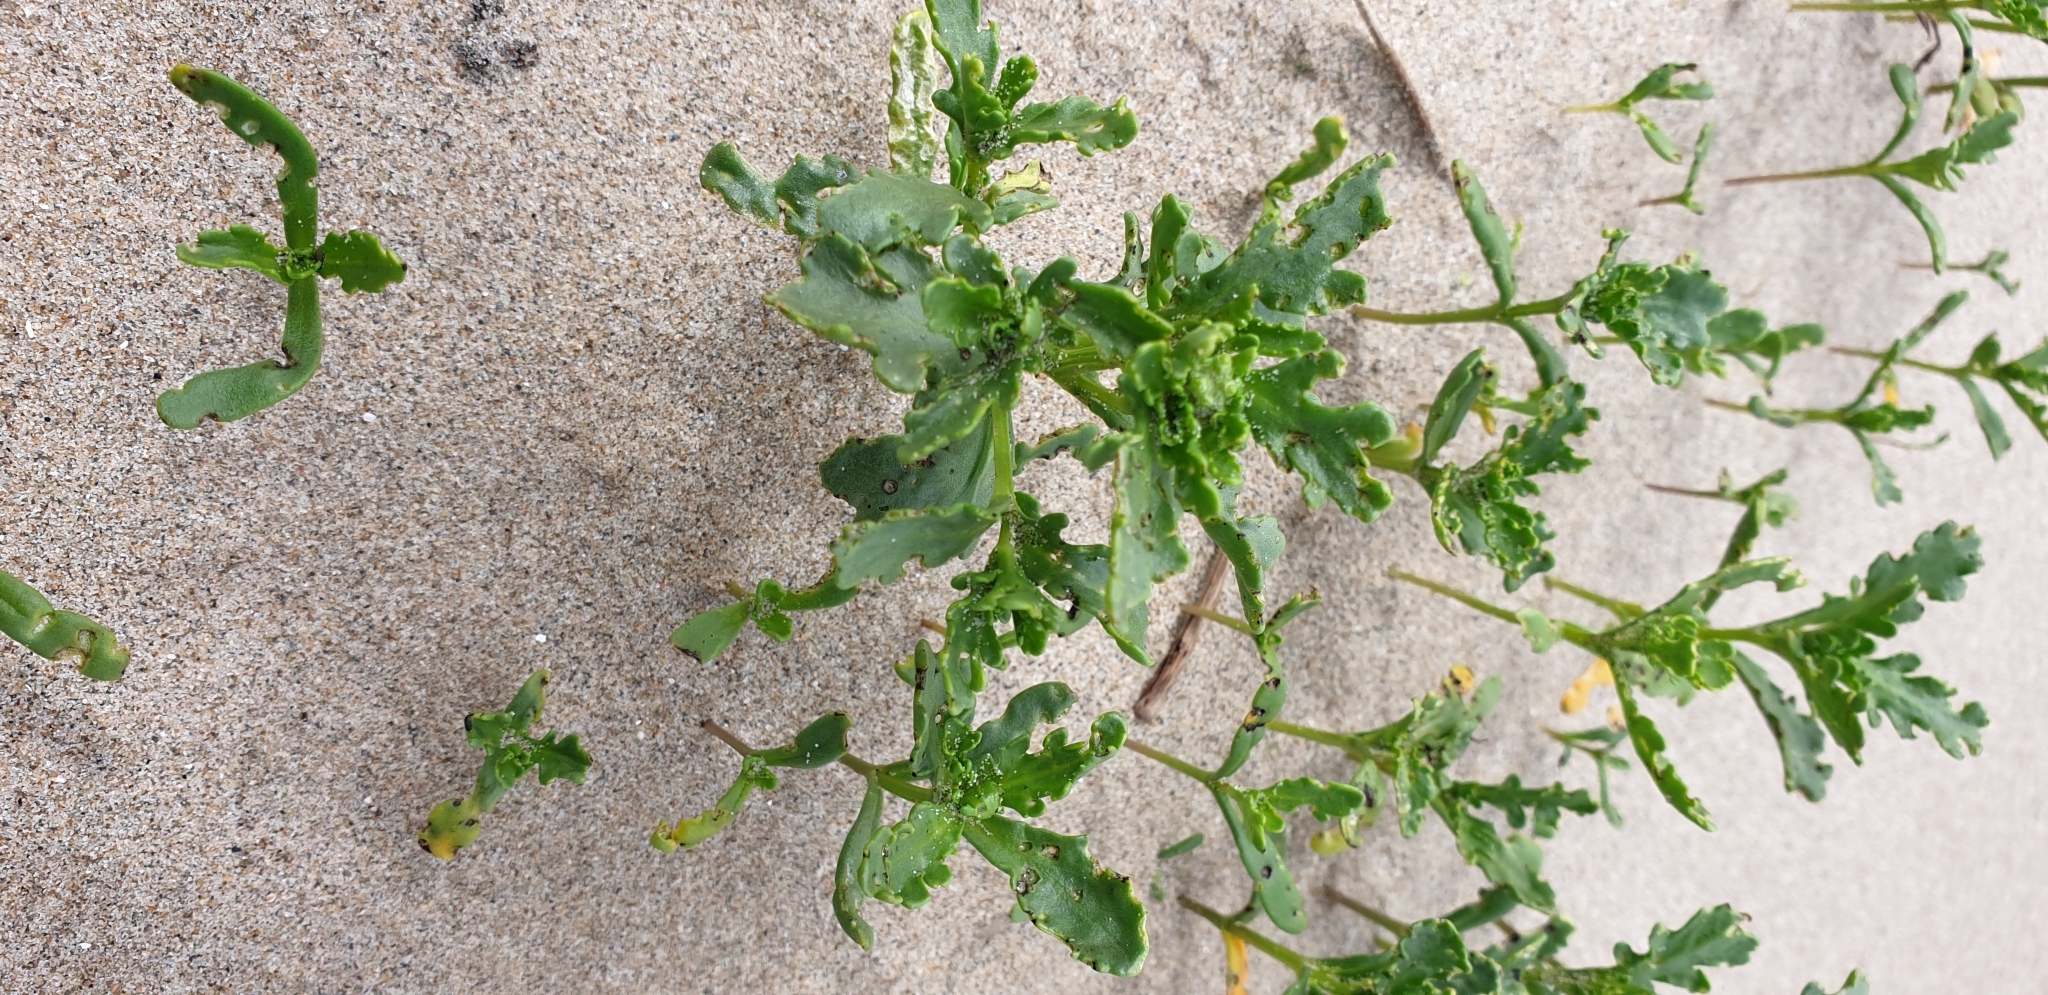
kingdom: Plantae
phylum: Tracheophyta
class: Magnoliopsida
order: Brassicales
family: Brassicaceae
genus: Cakile
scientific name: Cakile maritima
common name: Sea rocket
